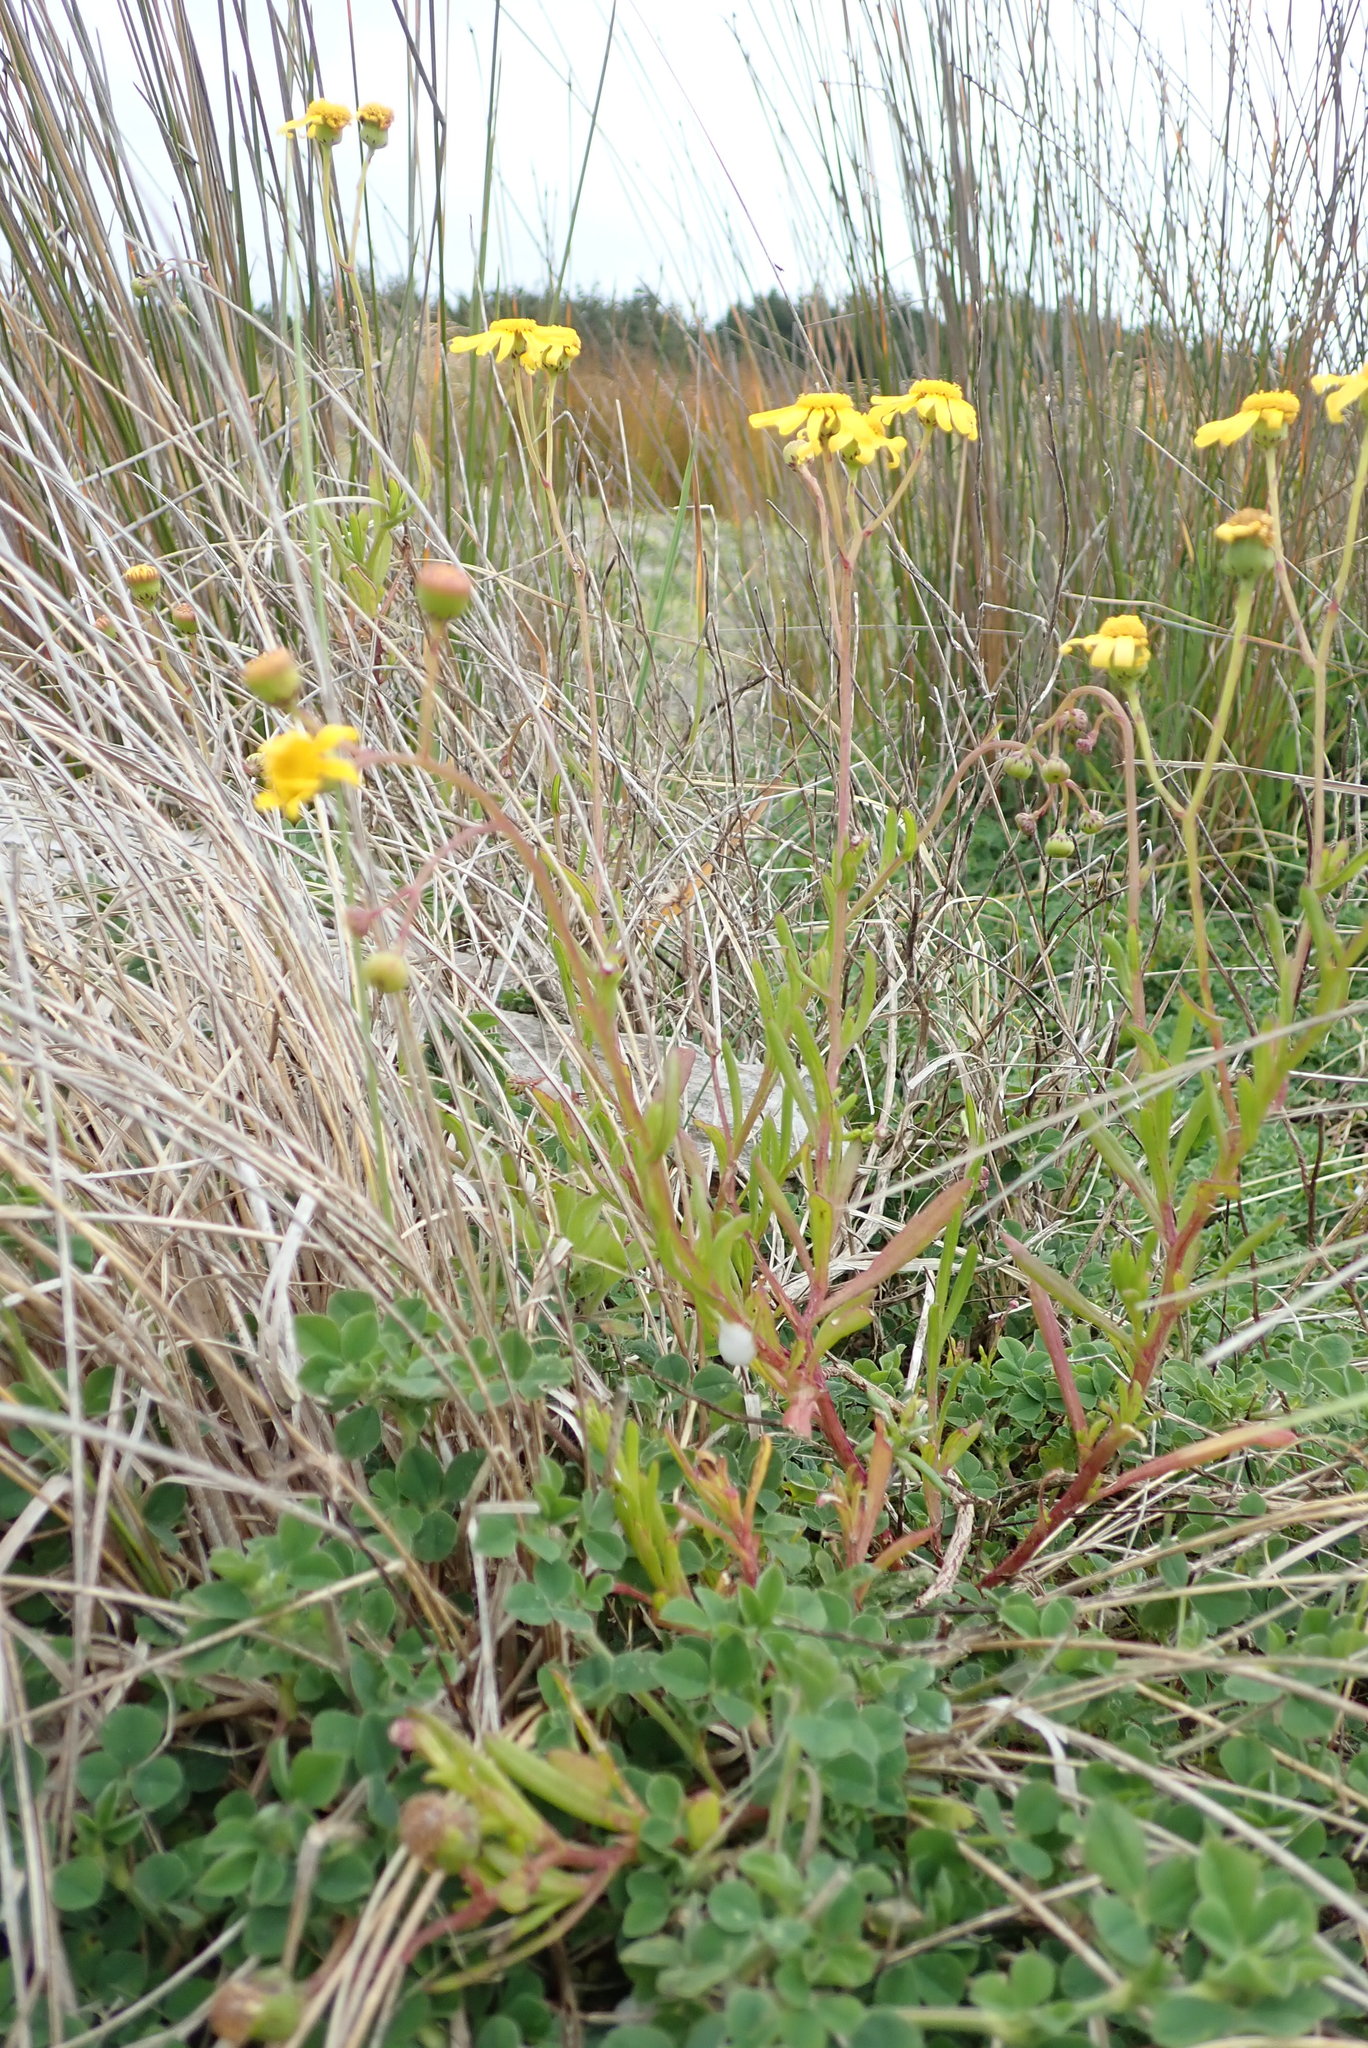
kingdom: Plantae
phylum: Tracheophyta
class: Magnoliopsida
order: Asterales
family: Asteraceae
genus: Senecio
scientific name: Senecio skirrhodon
